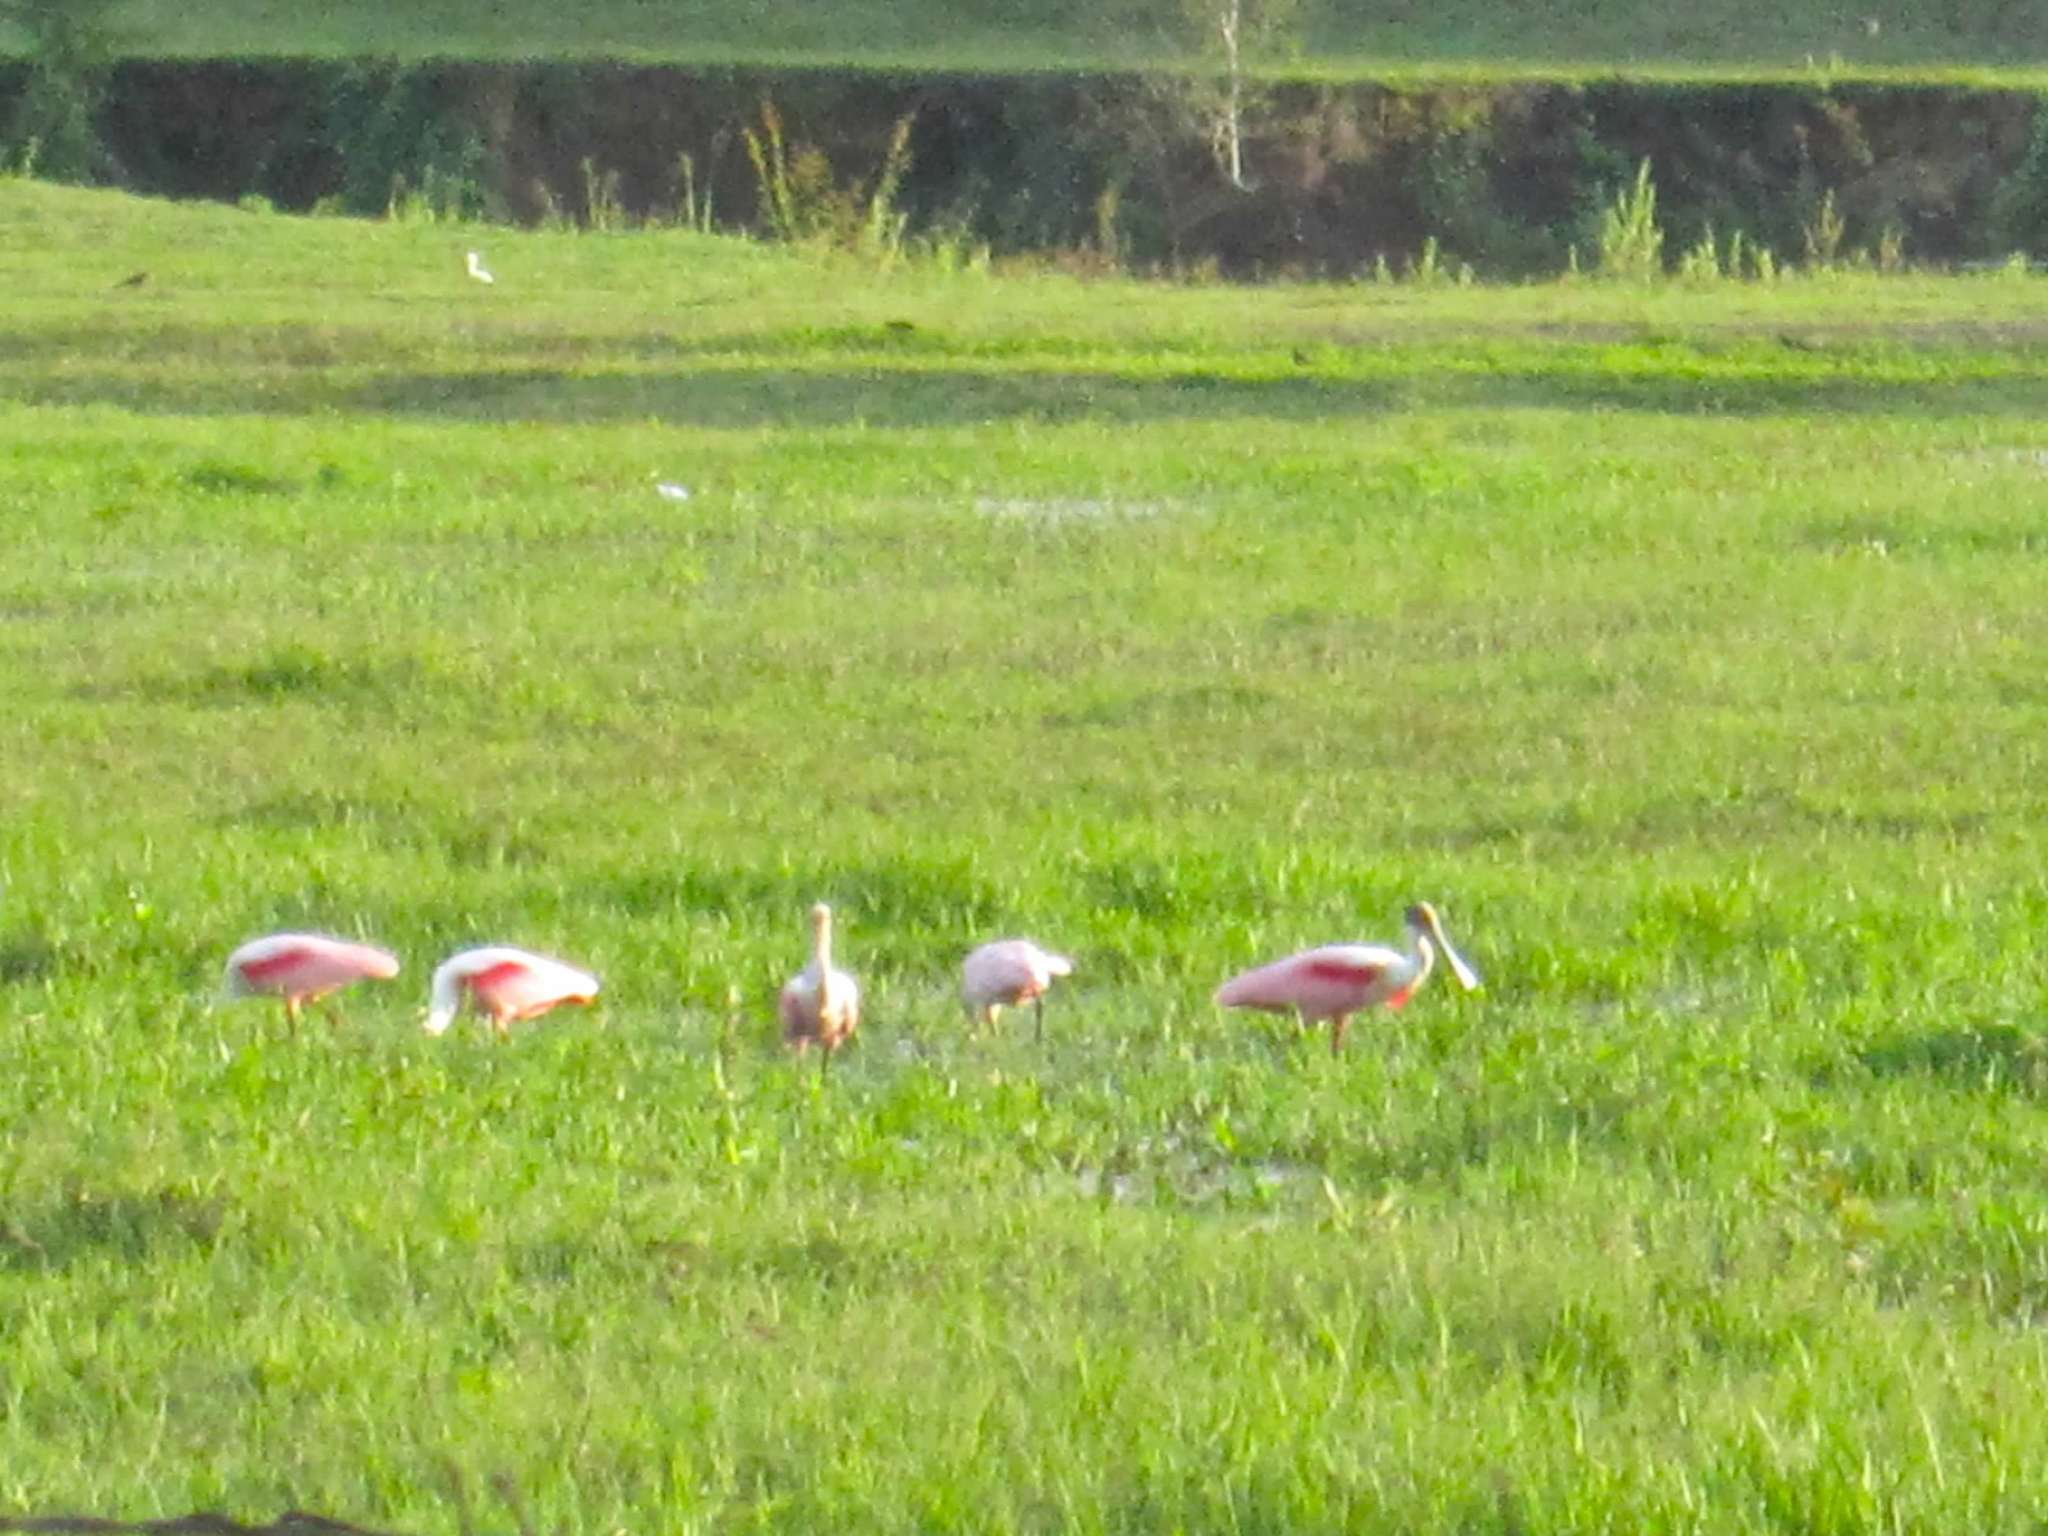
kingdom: Animalia
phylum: Chordata
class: Aves
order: Pelecaniformes
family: Threskiornithidae
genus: Platalea
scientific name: Platalea ajaja
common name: Roseate spoonbill
